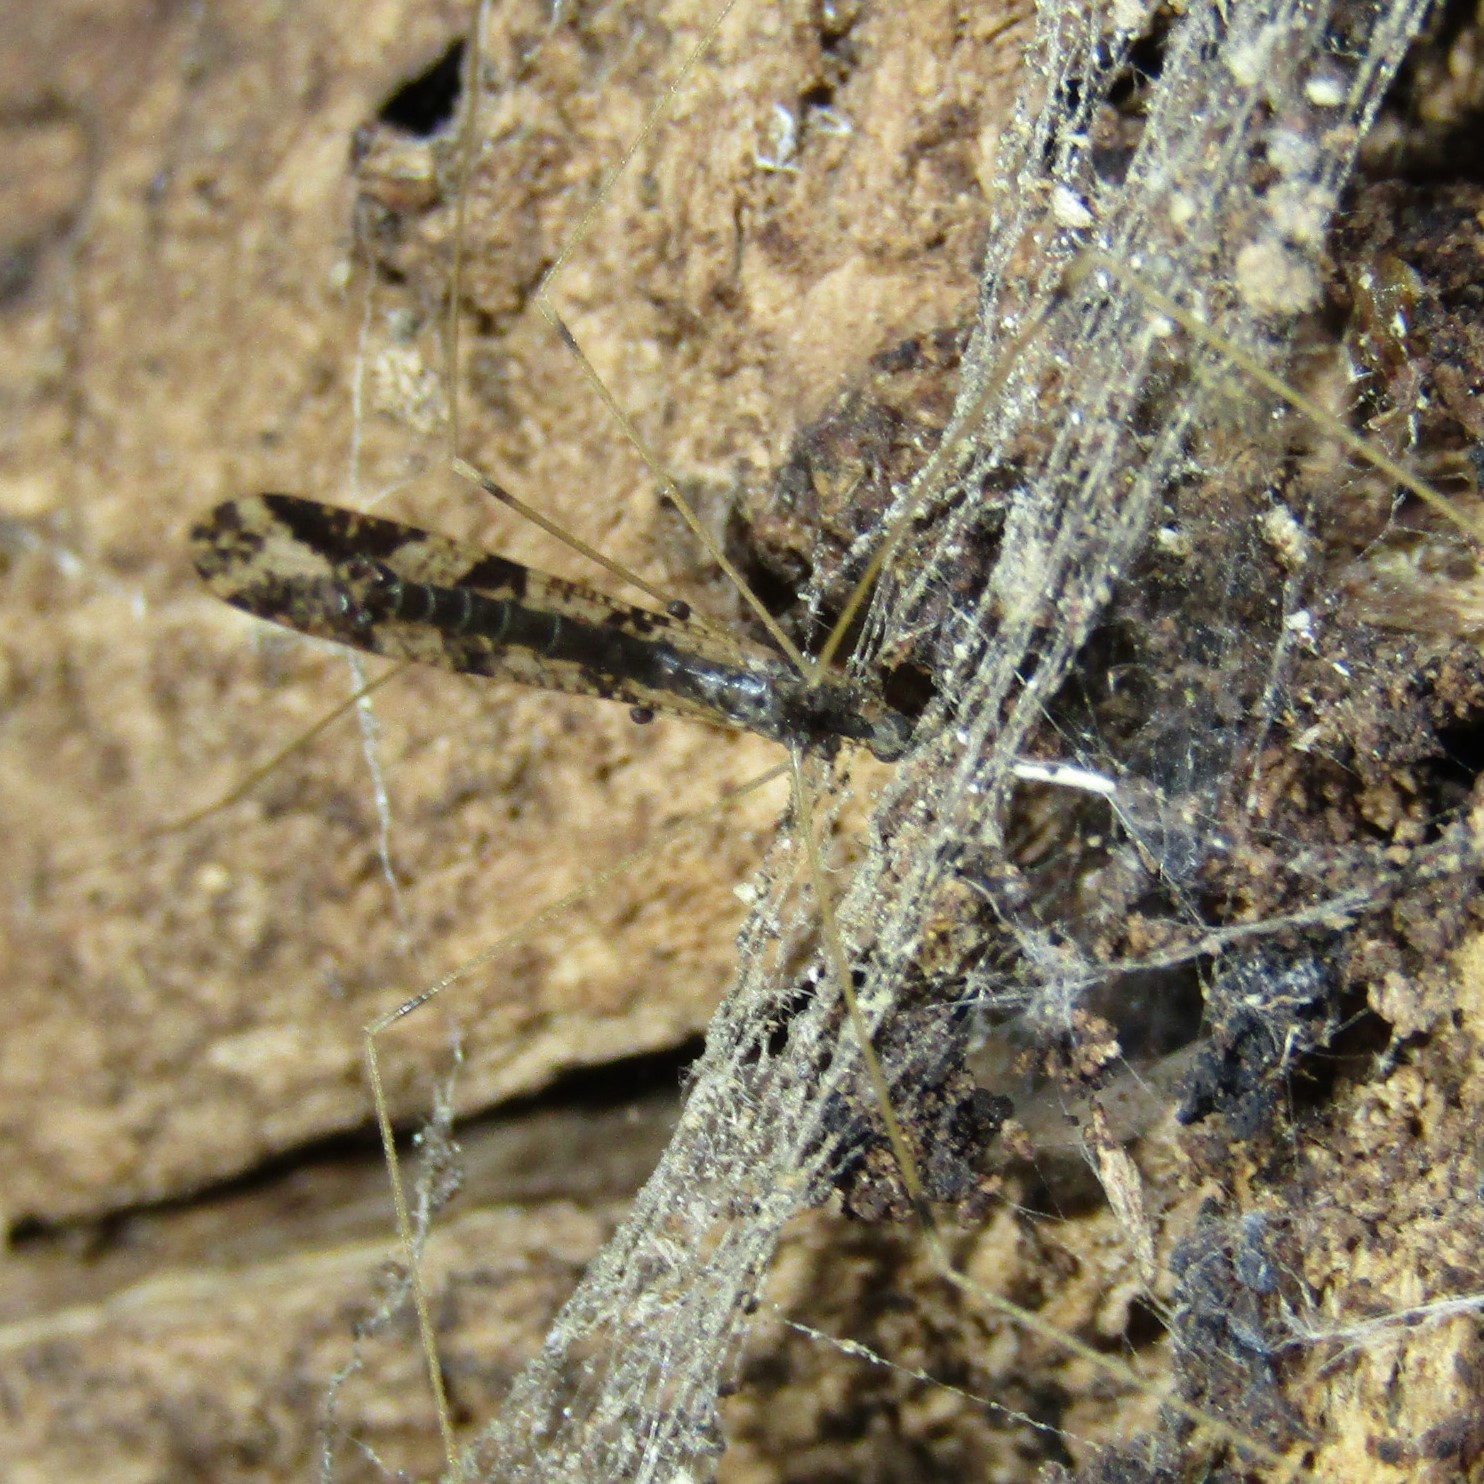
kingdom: Animalia
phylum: Arthropoda
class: Insecta
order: Diptera
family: Limoniidae
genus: Discobola
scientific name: Discobola striata
